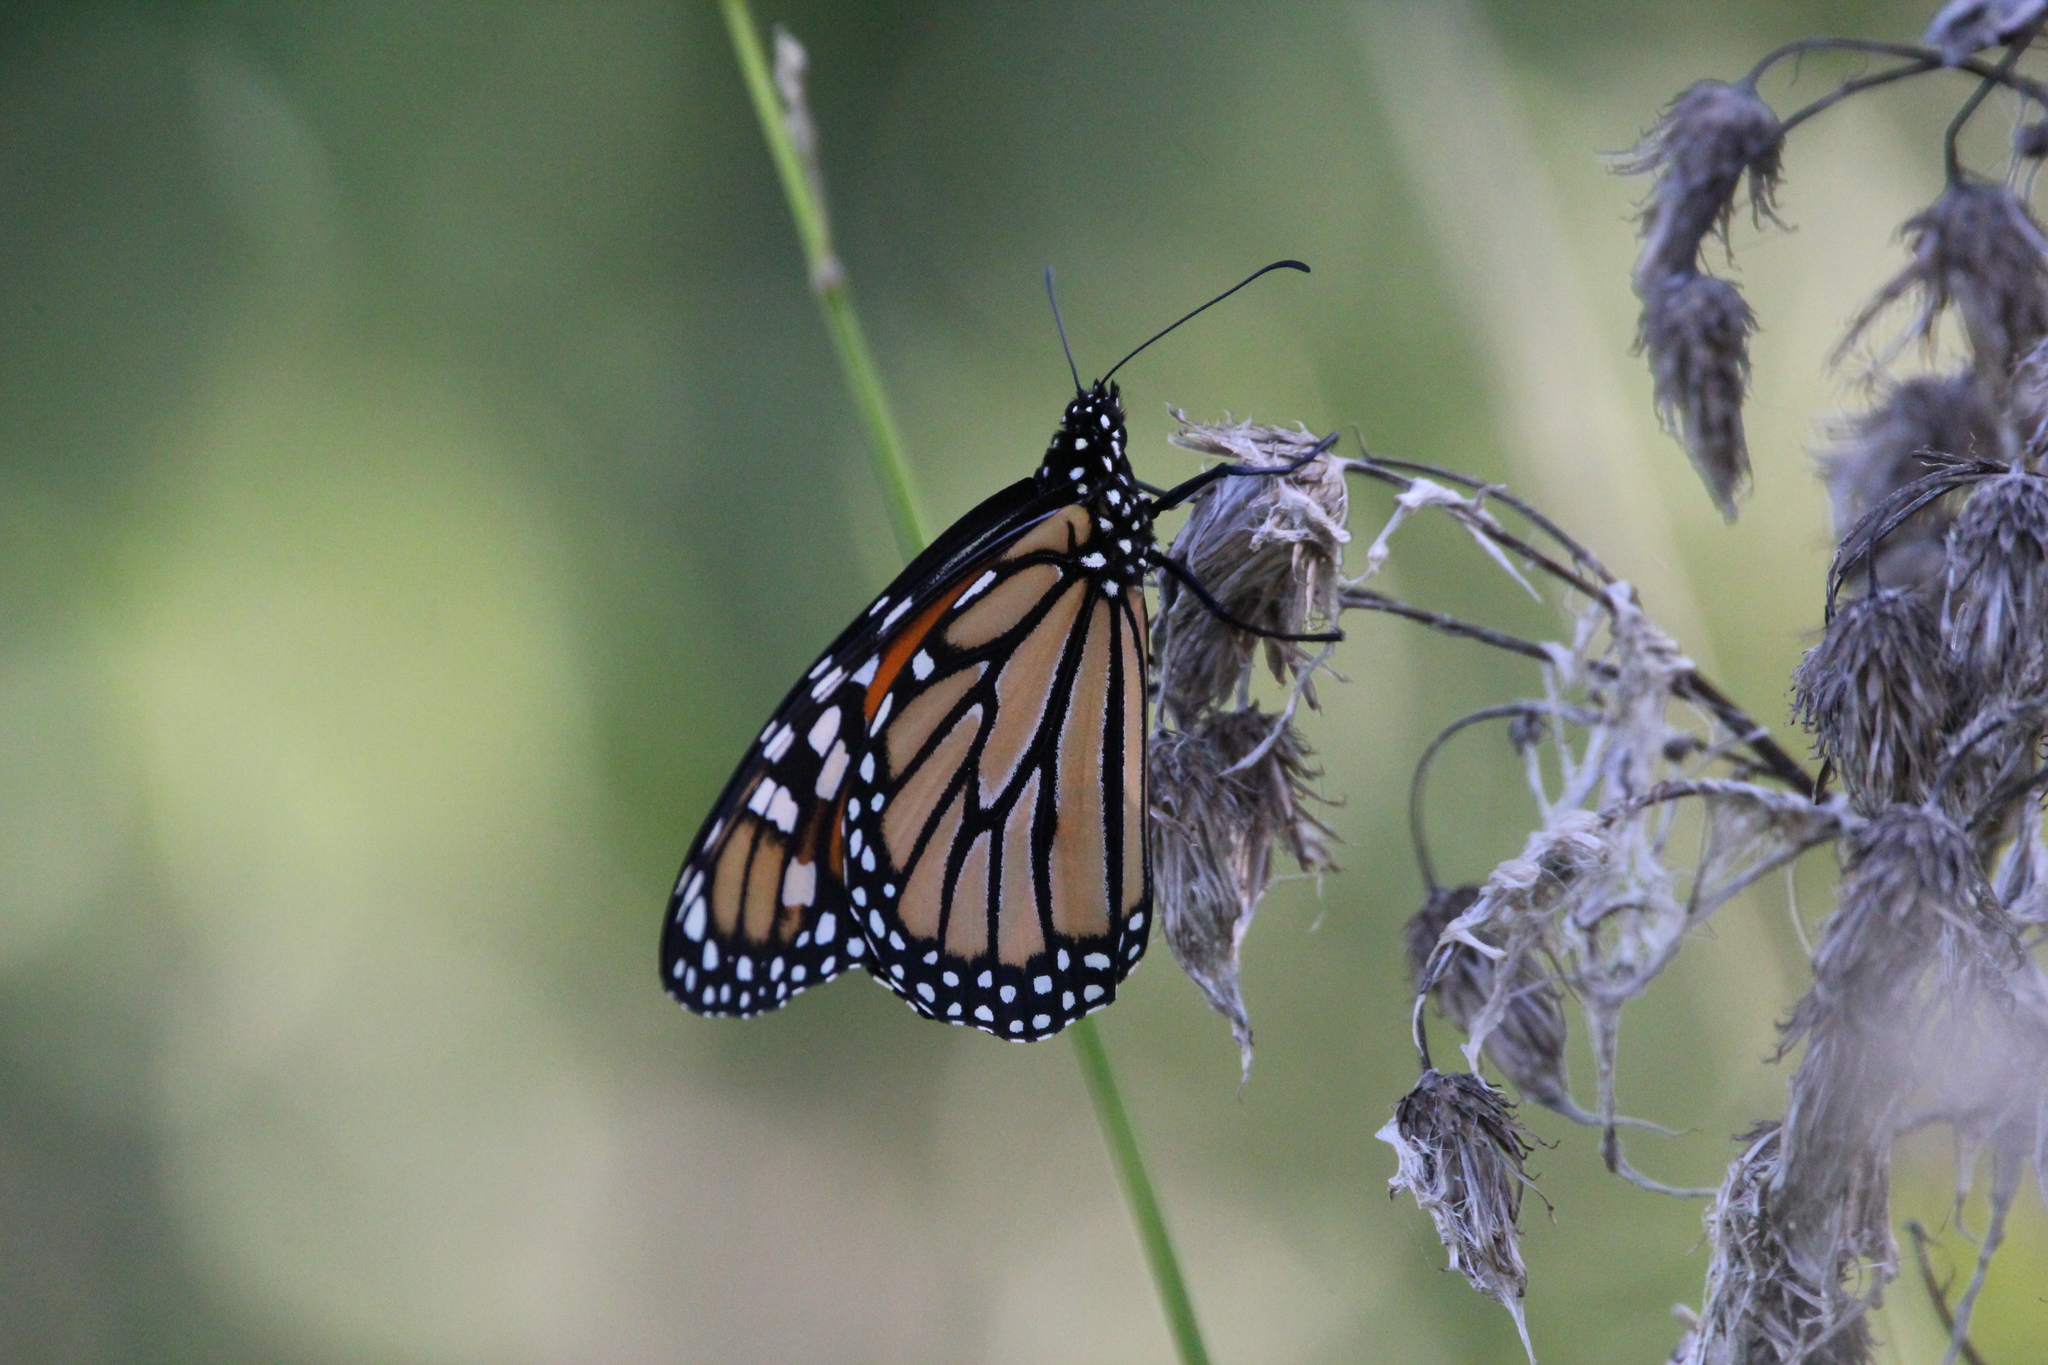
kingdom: Animalia
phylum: Arthropoda
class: Insecta
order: Lepidoptera
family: Nymphalidae
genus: Danaus
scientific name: Danaus plexippus
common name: Monarch
